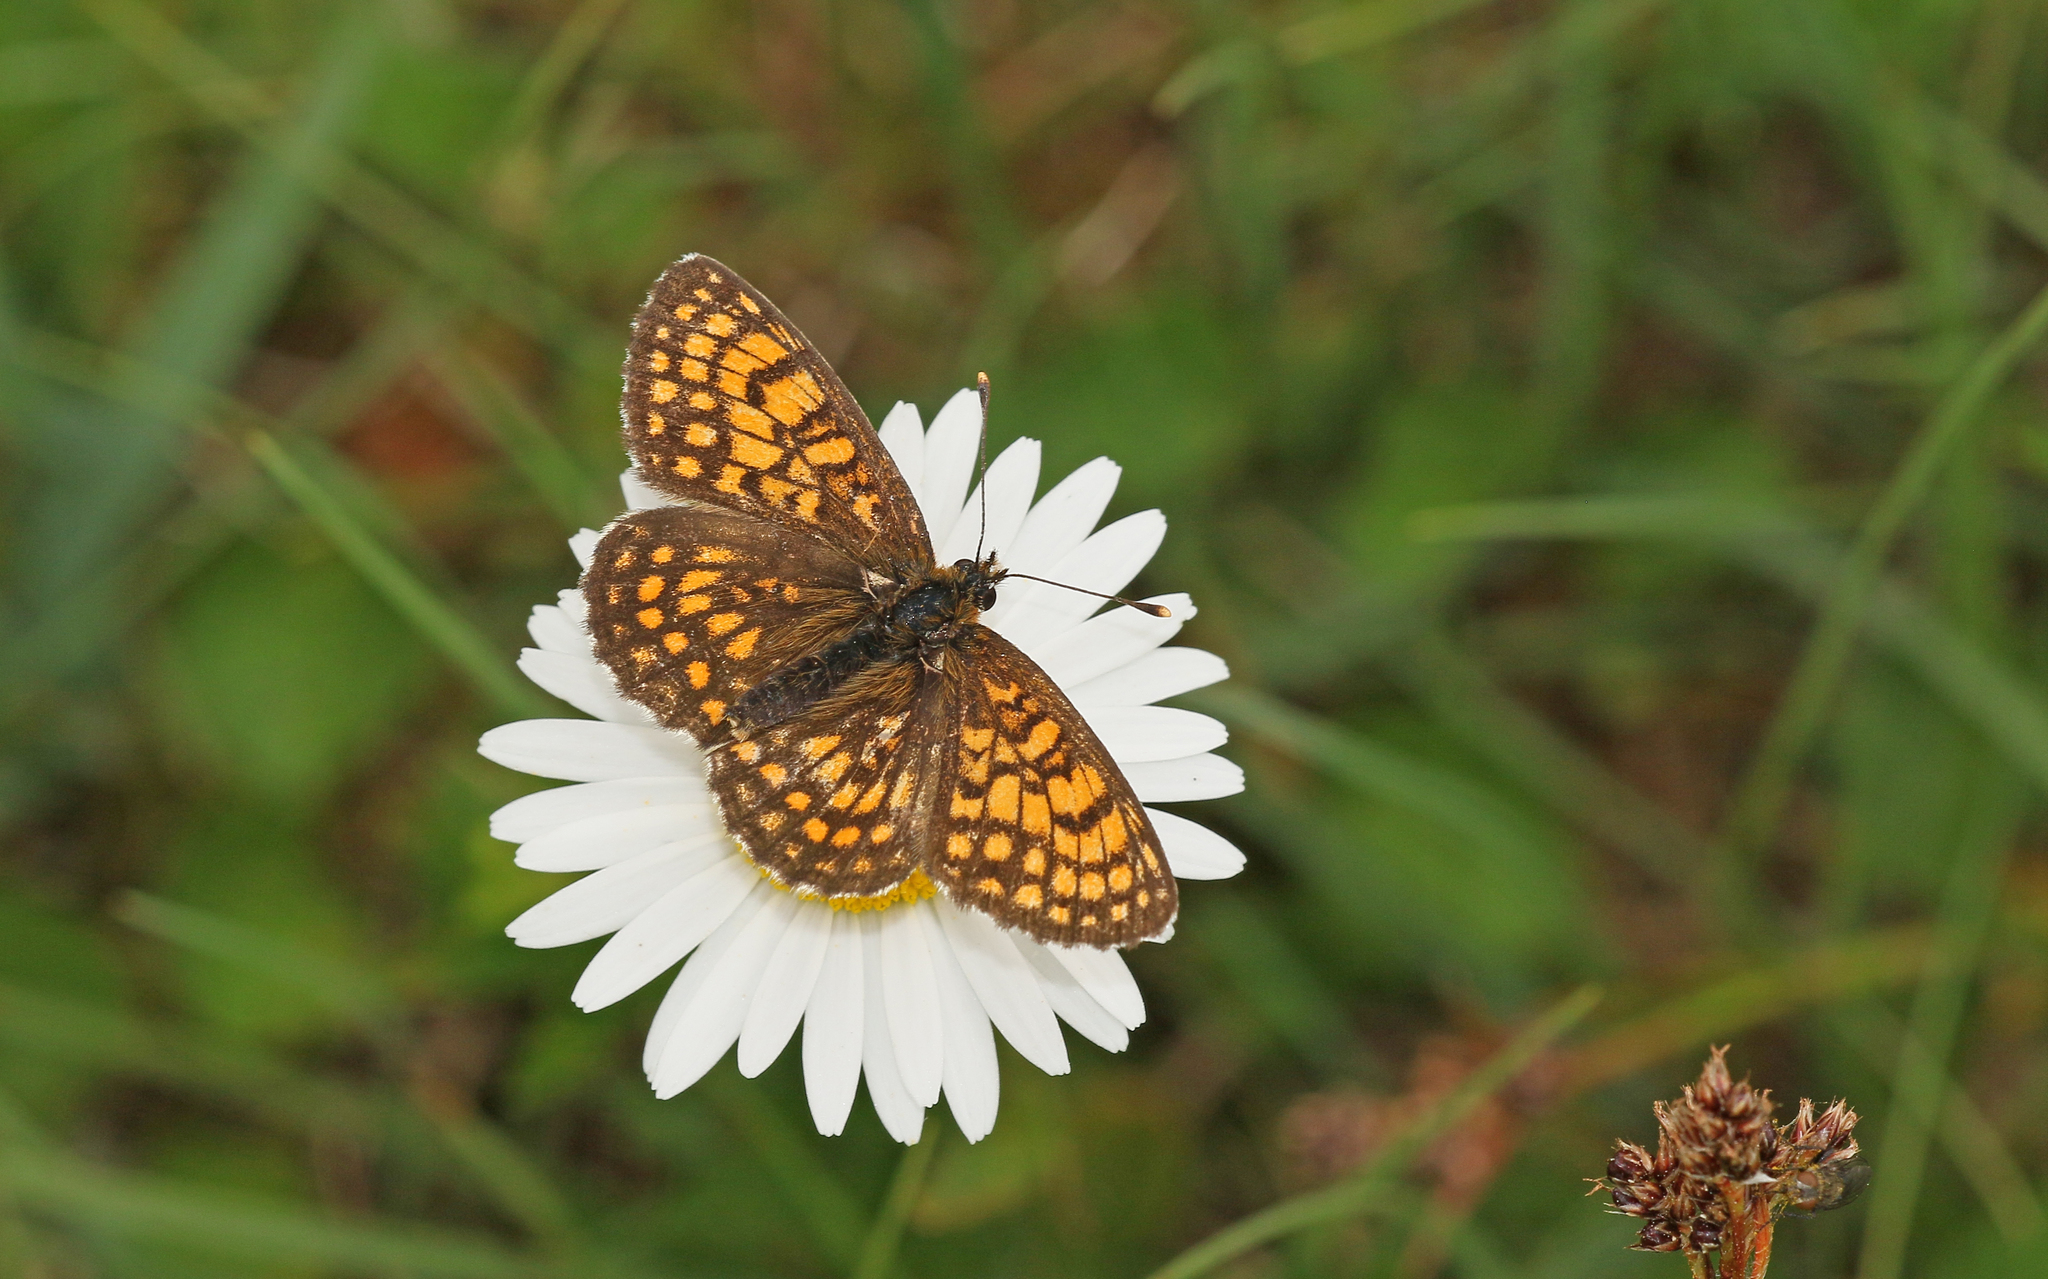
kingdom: Animalia
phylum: Arthropoda
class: Insecta
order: Lepidoptera
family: Nymphalidae
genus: Melitaea
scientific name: Melitaea athalia
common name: Heath fritillary
